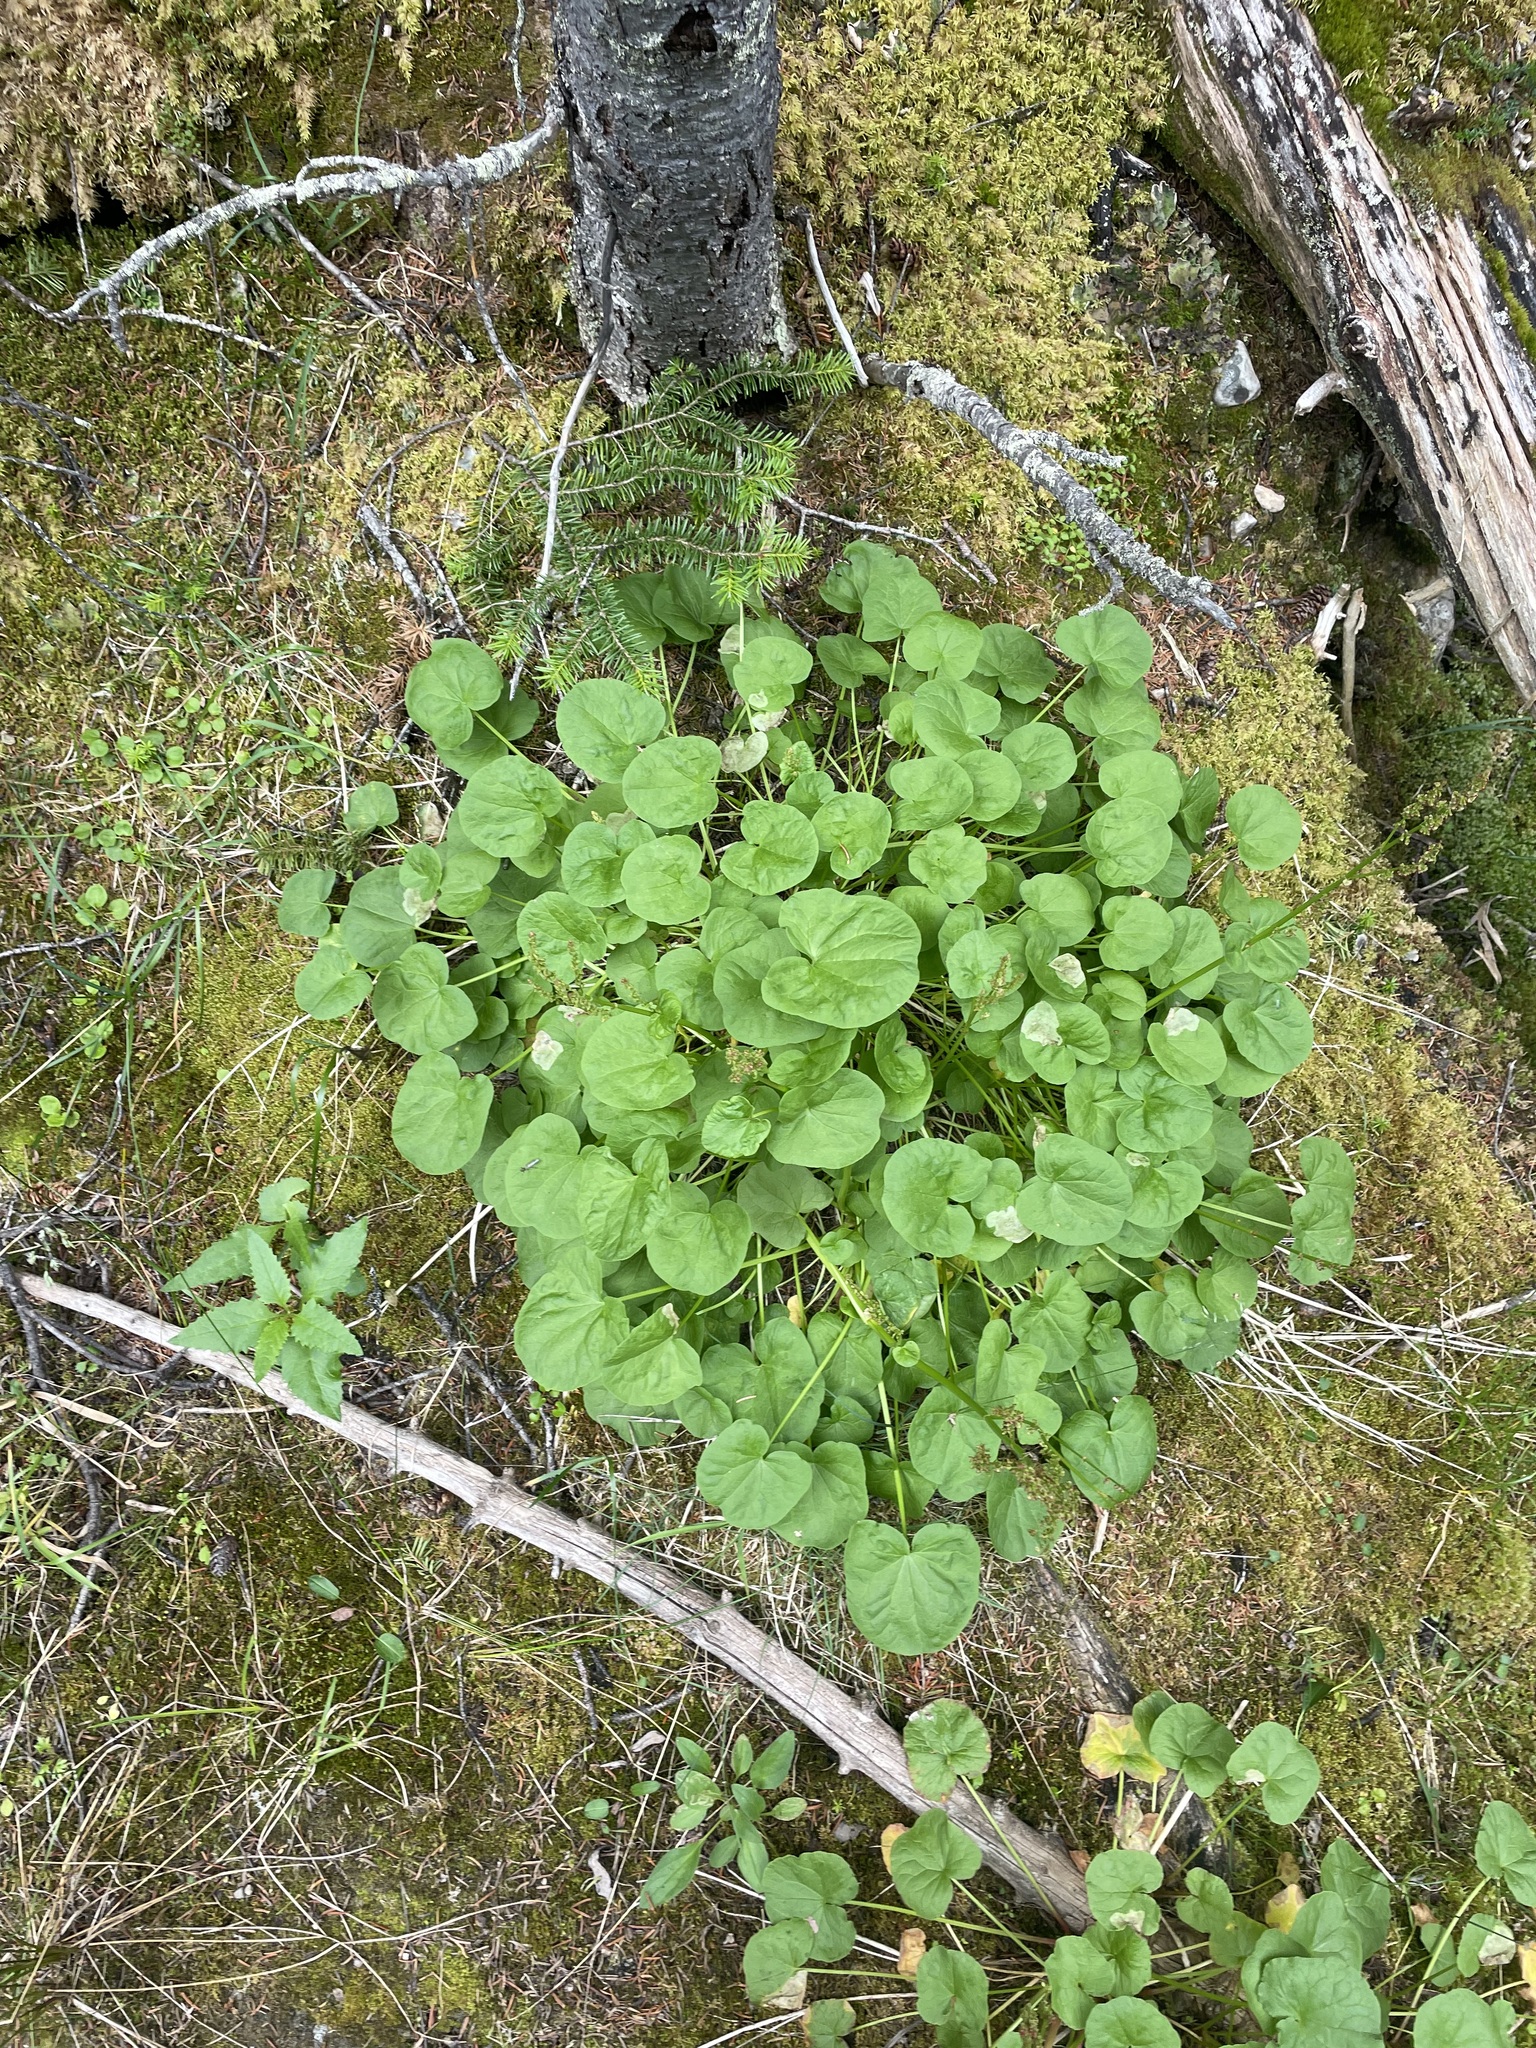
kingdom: Plantae
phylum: Tracheophyta
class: Magnoliopsida
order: Caryophyllales
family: Polygonaceae
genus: Oxyria
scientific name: Oxyria digyna
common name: Alpine mountain-sorrel
